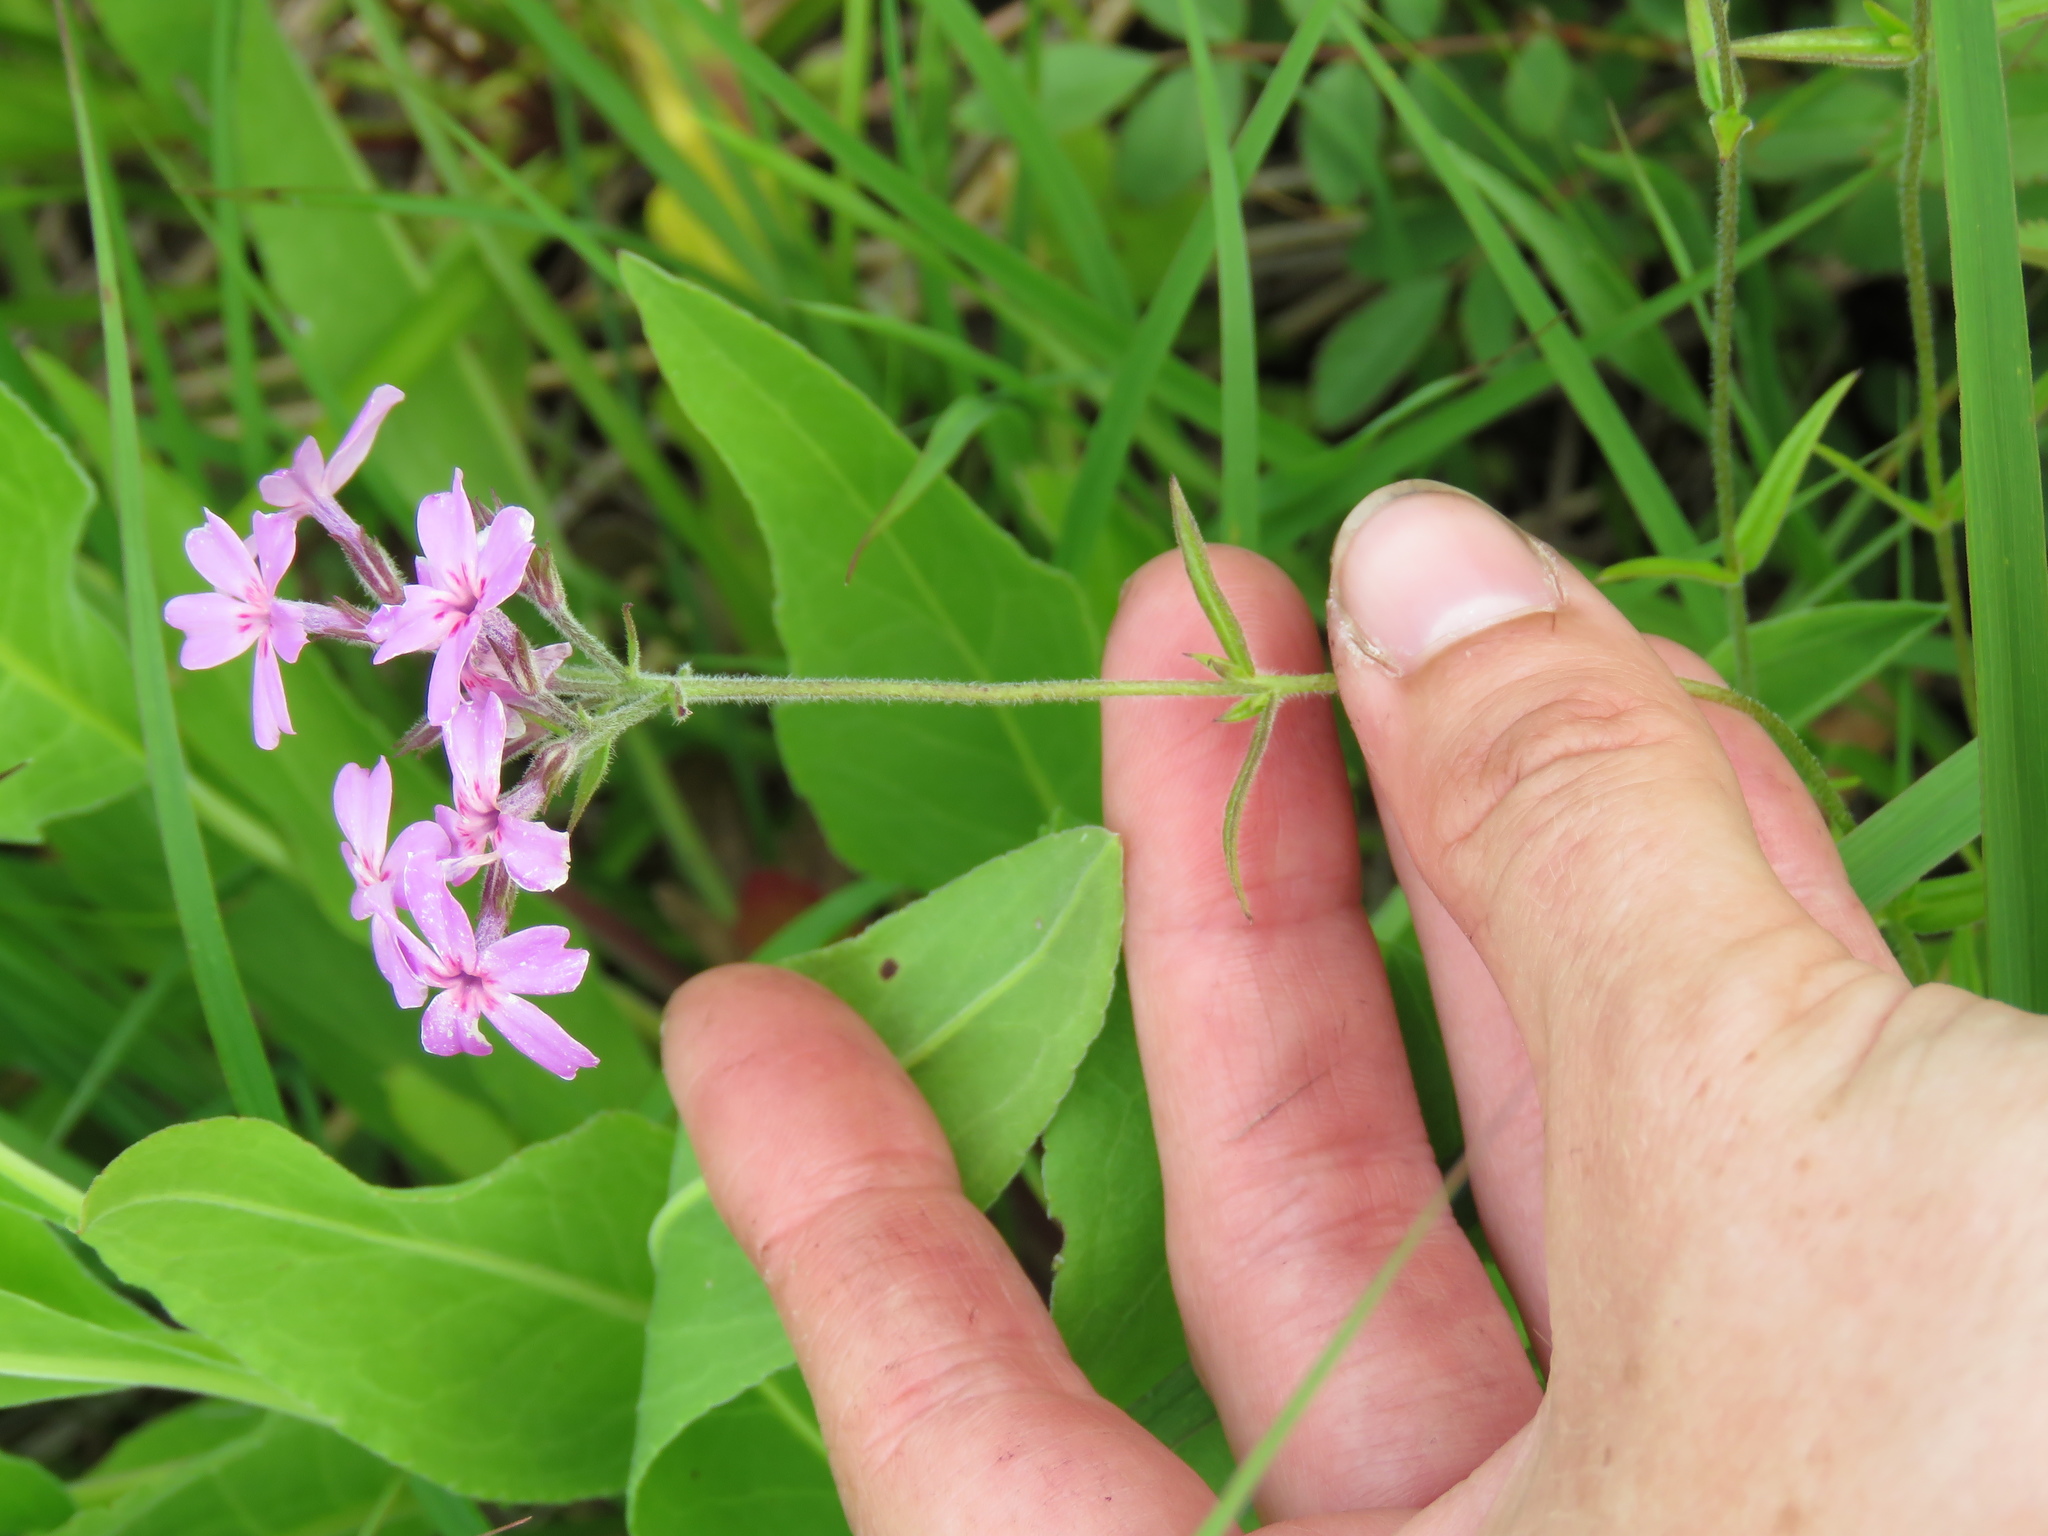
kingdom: Plantae
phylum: Tracheophyta
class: Magnoliopsida
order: Ericales
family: Polemoniaceae
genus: Phlox
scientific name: Phlox pilosa
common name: Prairie phlox
